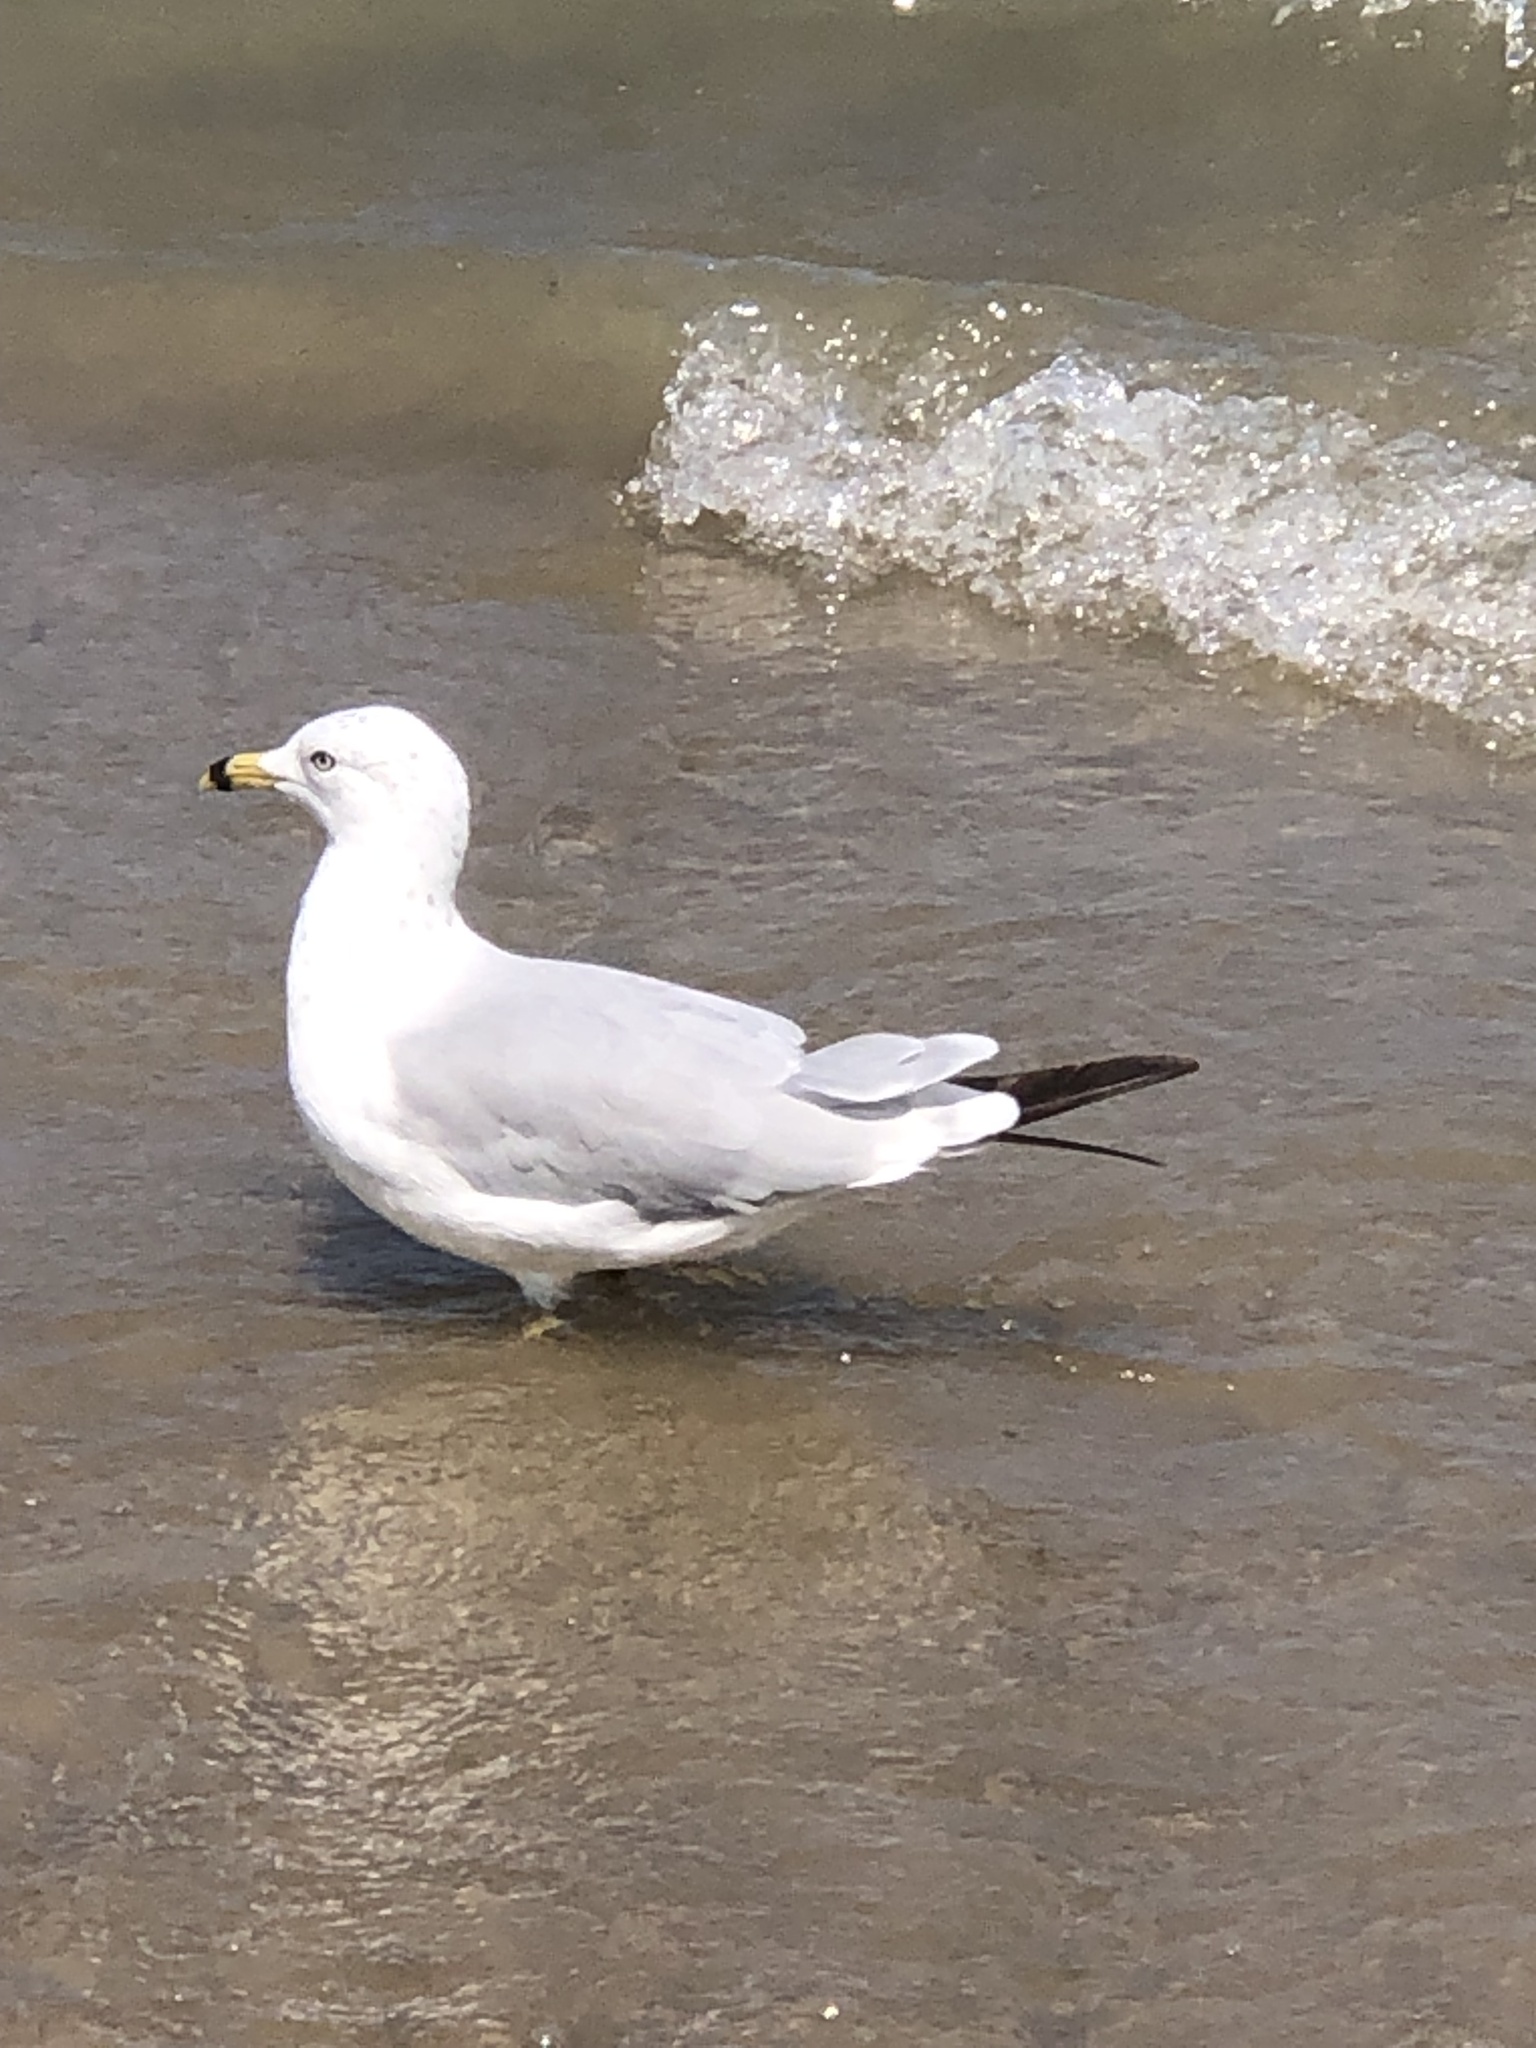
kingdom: Animalia
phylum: Chordata
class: Aves
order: Charadriiformes
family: Laridae
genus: Larus
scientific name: Larus delawarensis
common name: Ring-billed gull
